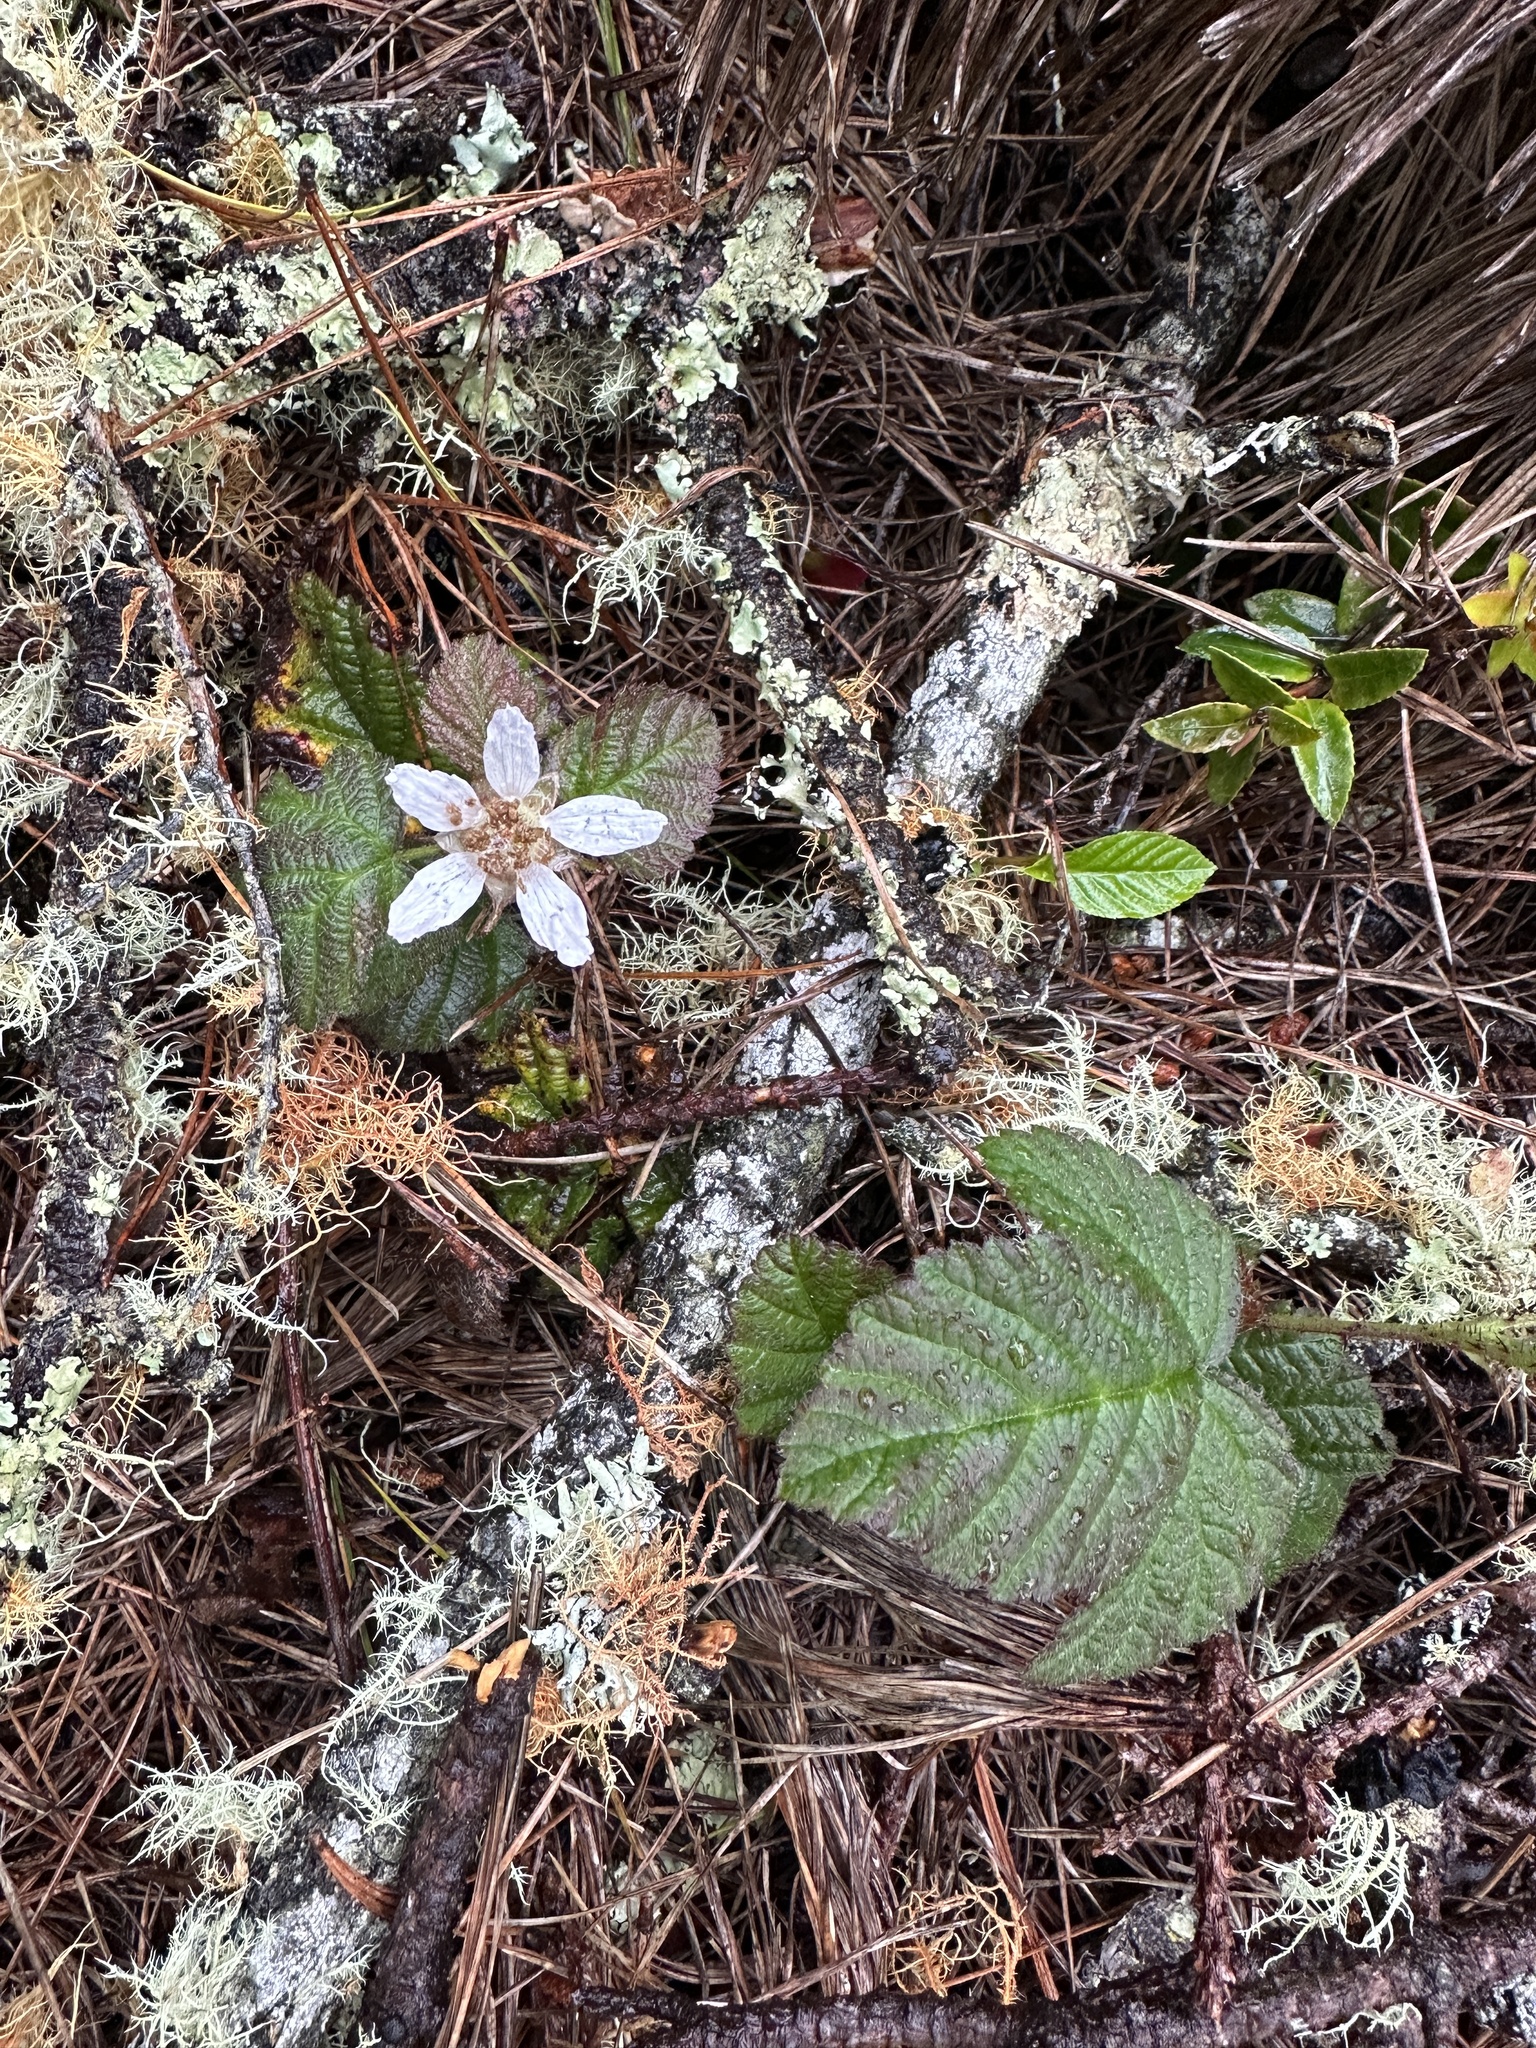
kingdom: Plantae
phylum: Tracheophyta
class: Magnoliopsida
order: Rosales
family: Rosaceae
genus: Rubus
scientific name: Rubus ursinus
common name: Pacific blackberry
